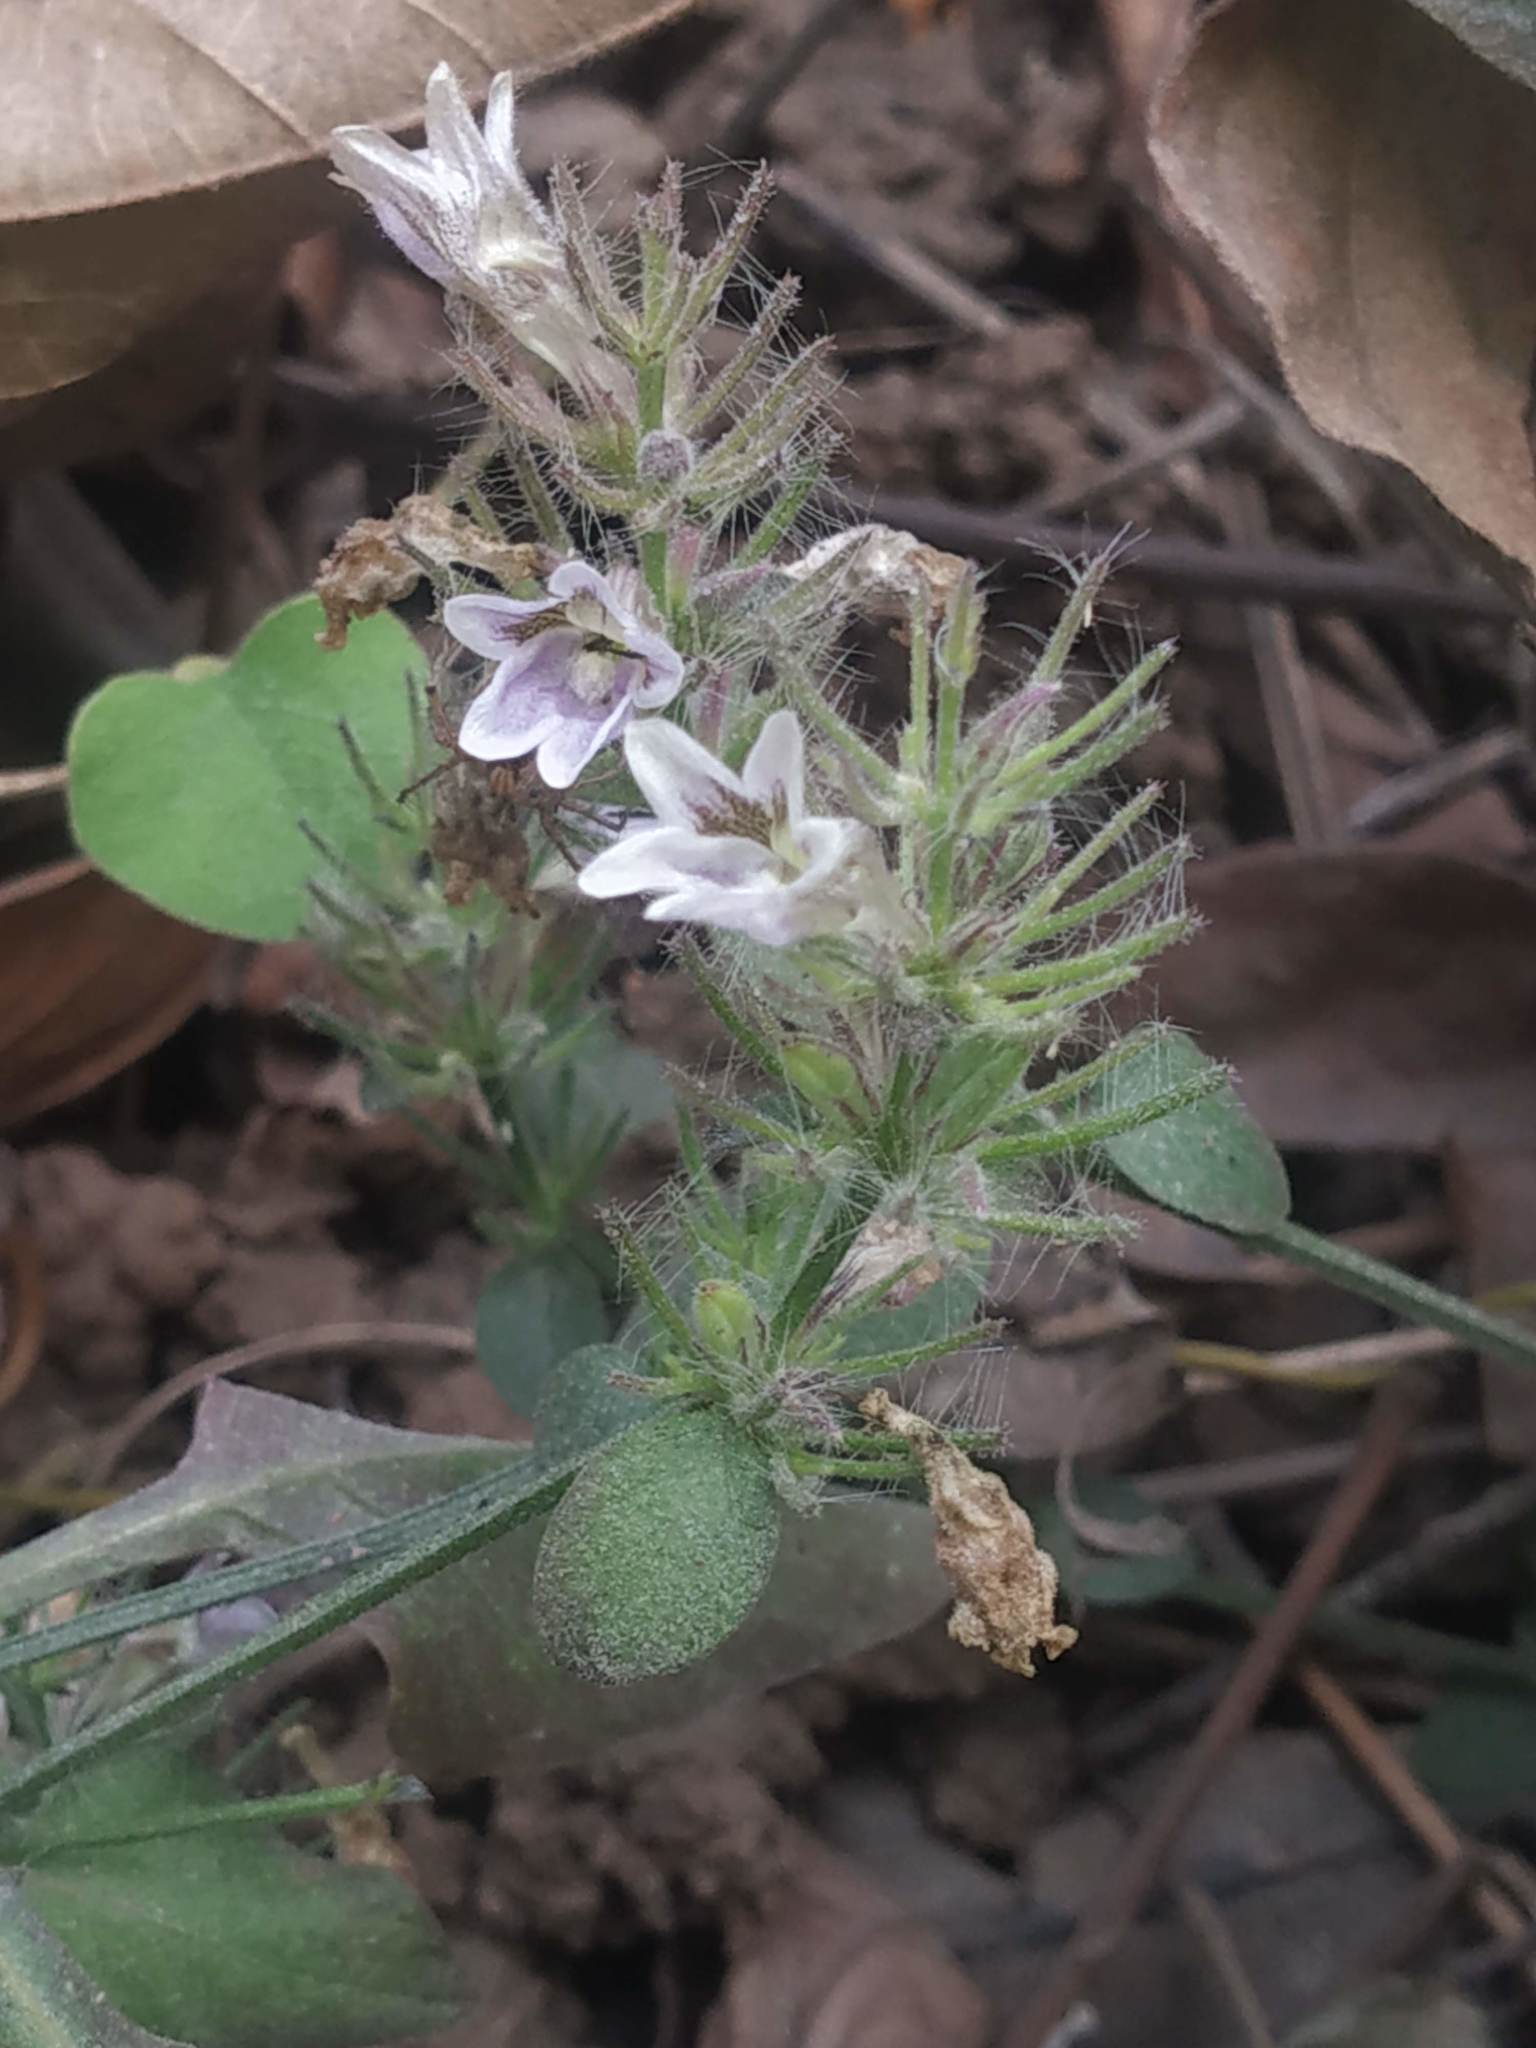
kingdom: Plantae
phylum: Tracheophyta
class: Magnoliopsida
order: Lamiales
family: Acanthaceae
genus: Haplanthodes
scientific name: Haplanthodes tentaculatus
